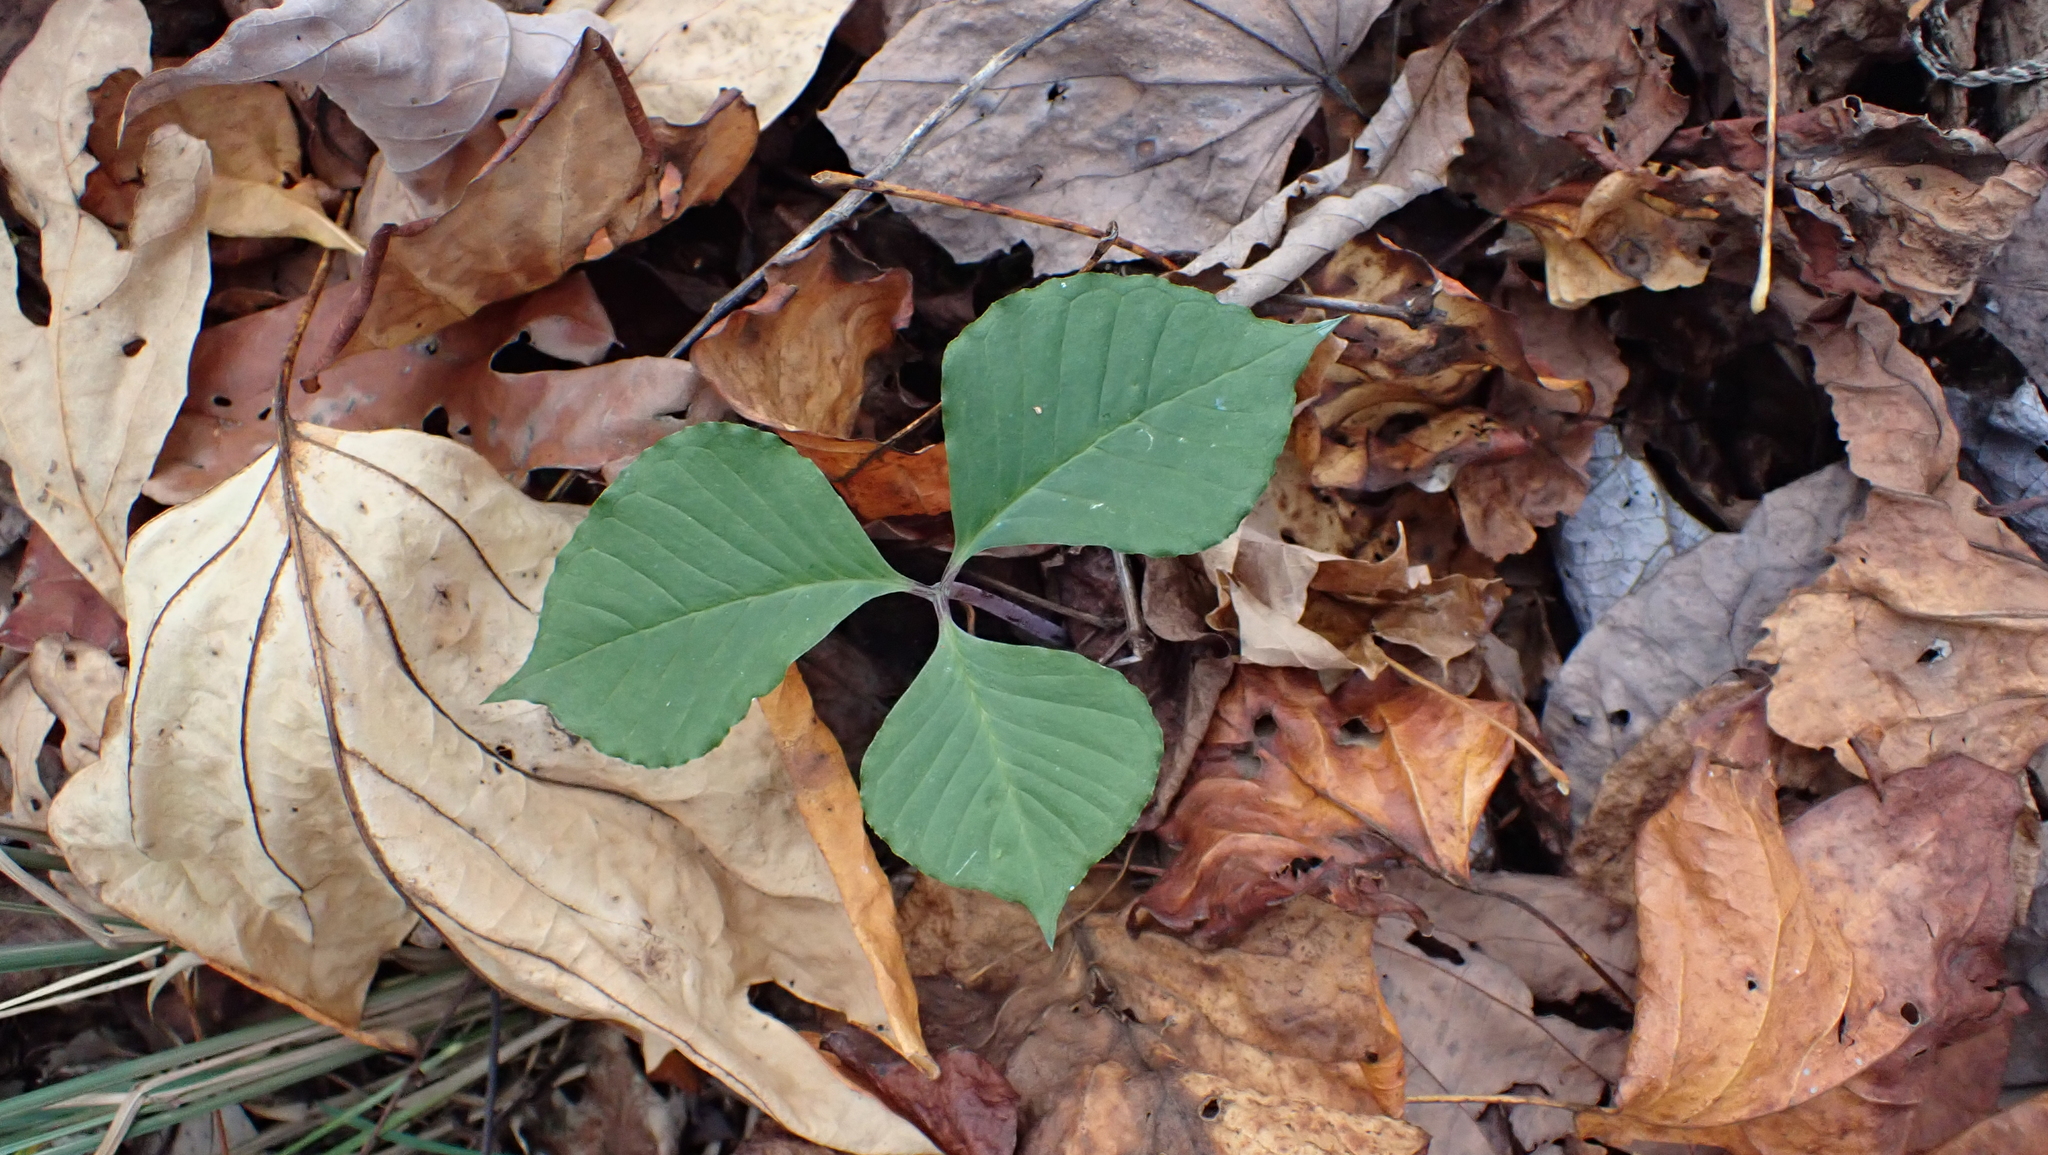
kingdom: Plantae
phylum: Tracheophyta
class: Liliopsida
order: Alismatales
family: Araceae
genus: Arisaema
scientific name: Arisaema triphyllum
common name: Jack-in-the-pulpit
